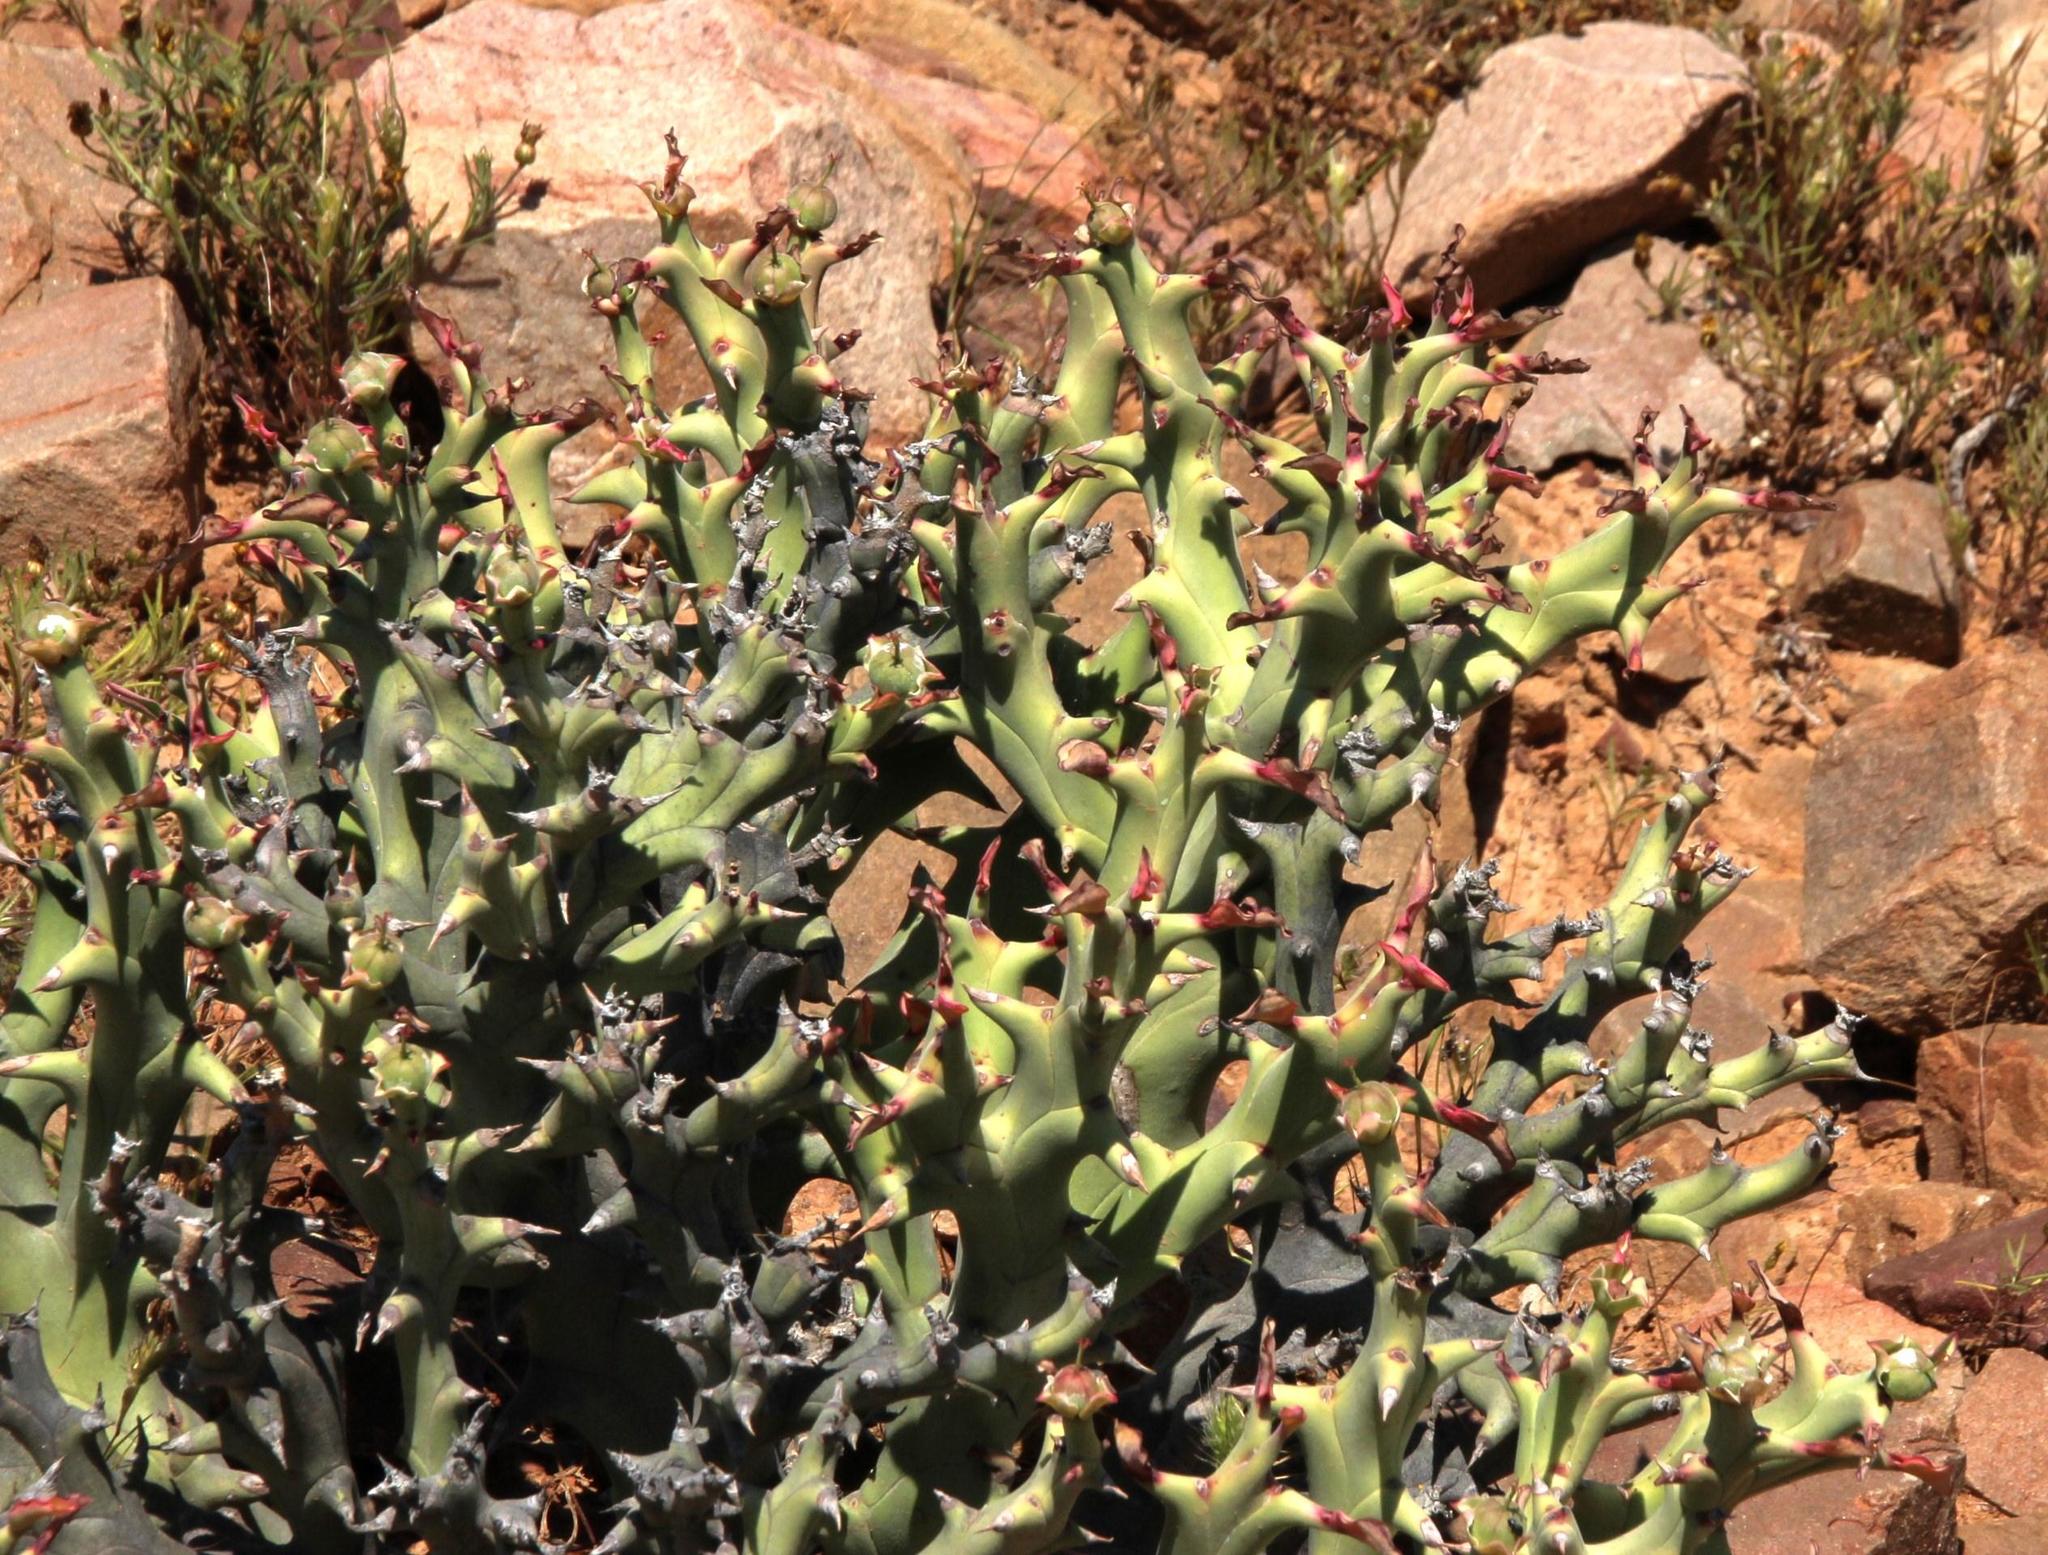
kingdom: Plantae
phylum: Tracheophyta
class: Magnoliopsida
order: Malpighiales
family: Euphorbiaceae
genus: Euphorbia
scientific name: Euphorbia hamata
